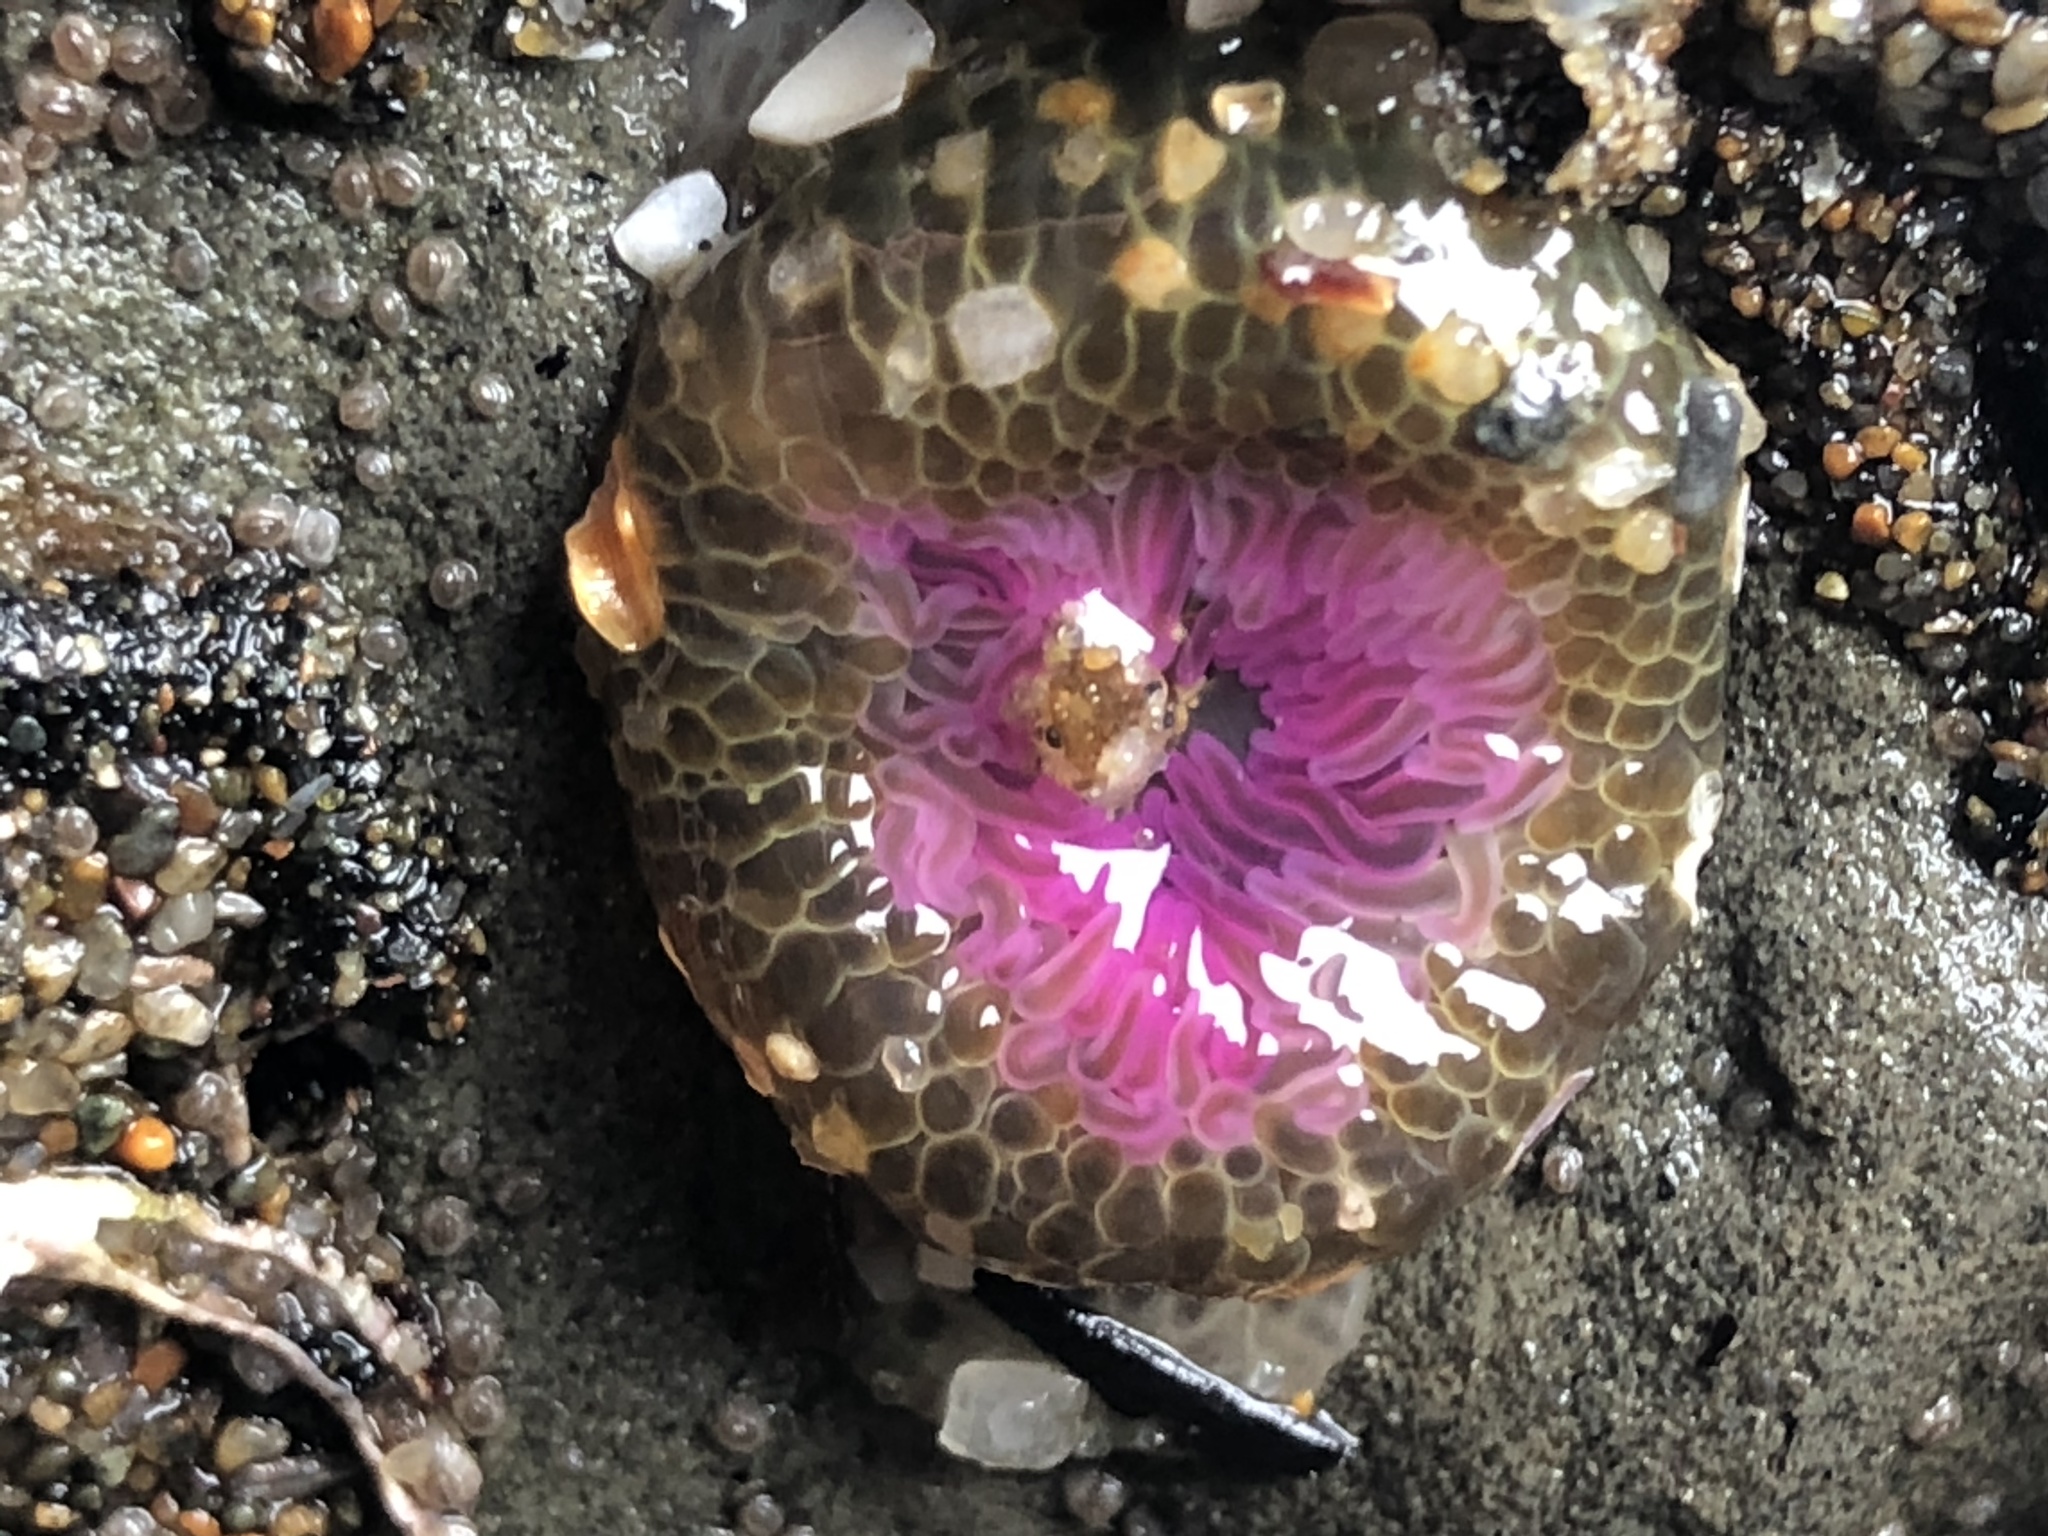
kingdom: Animalia
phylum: Cnidaria
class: Anthozoa
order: Actiniaria
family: Actiniidae
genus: Anthopleura
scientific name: Anthopleura elegantissima
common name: Clonal anemone
